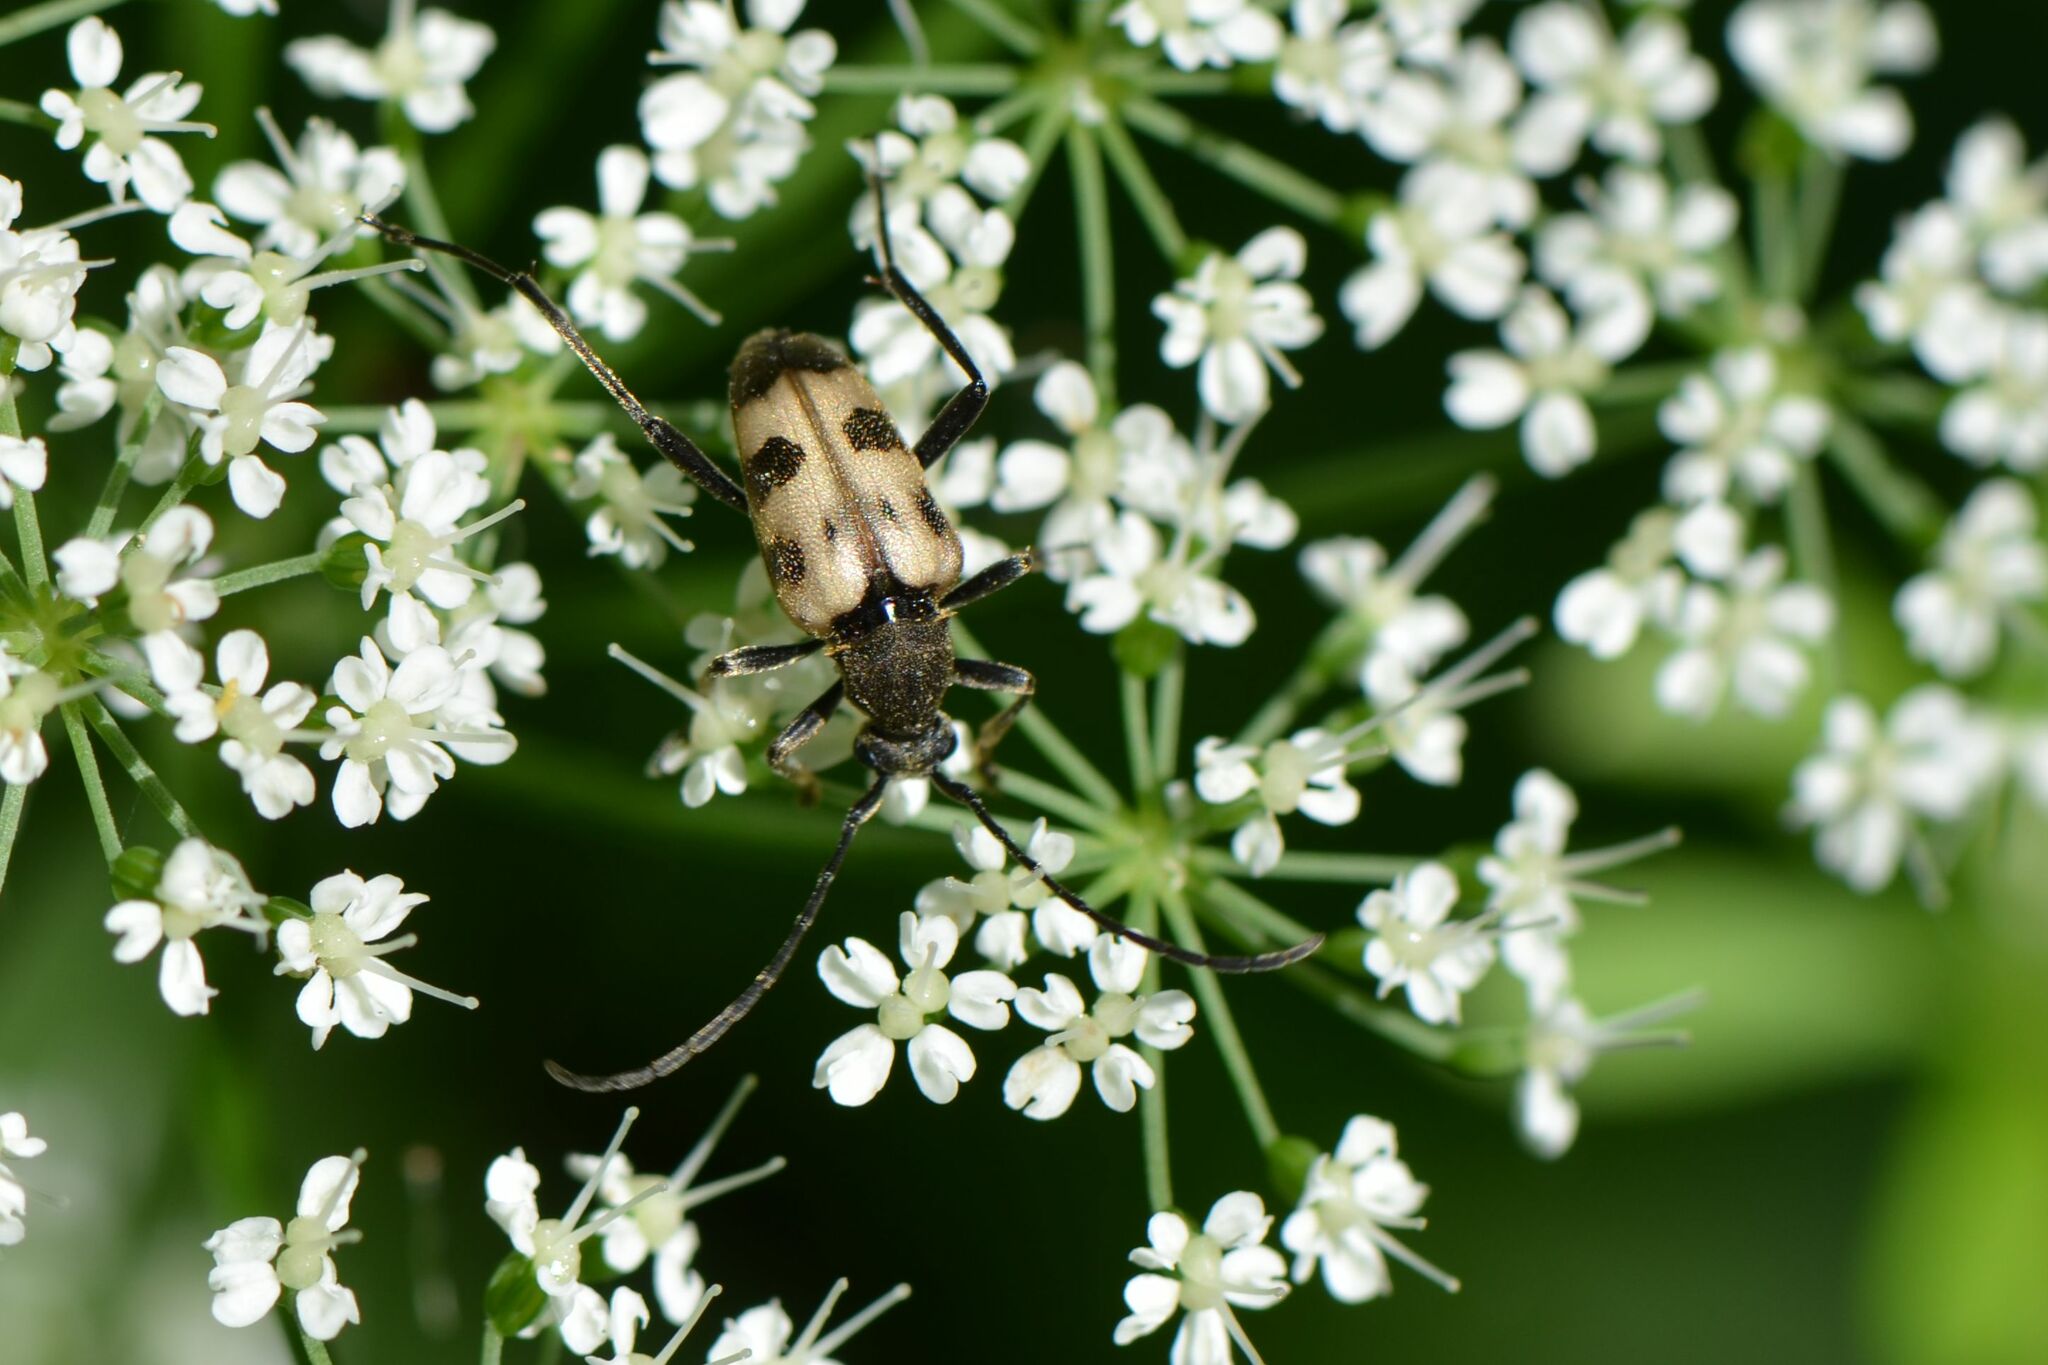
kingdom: Animalia
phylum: Arthropoda
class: Insecta
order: Coleoptera
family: Cerambycidae
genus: Pachytodes
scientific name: Pachytodes cerambyciformis
